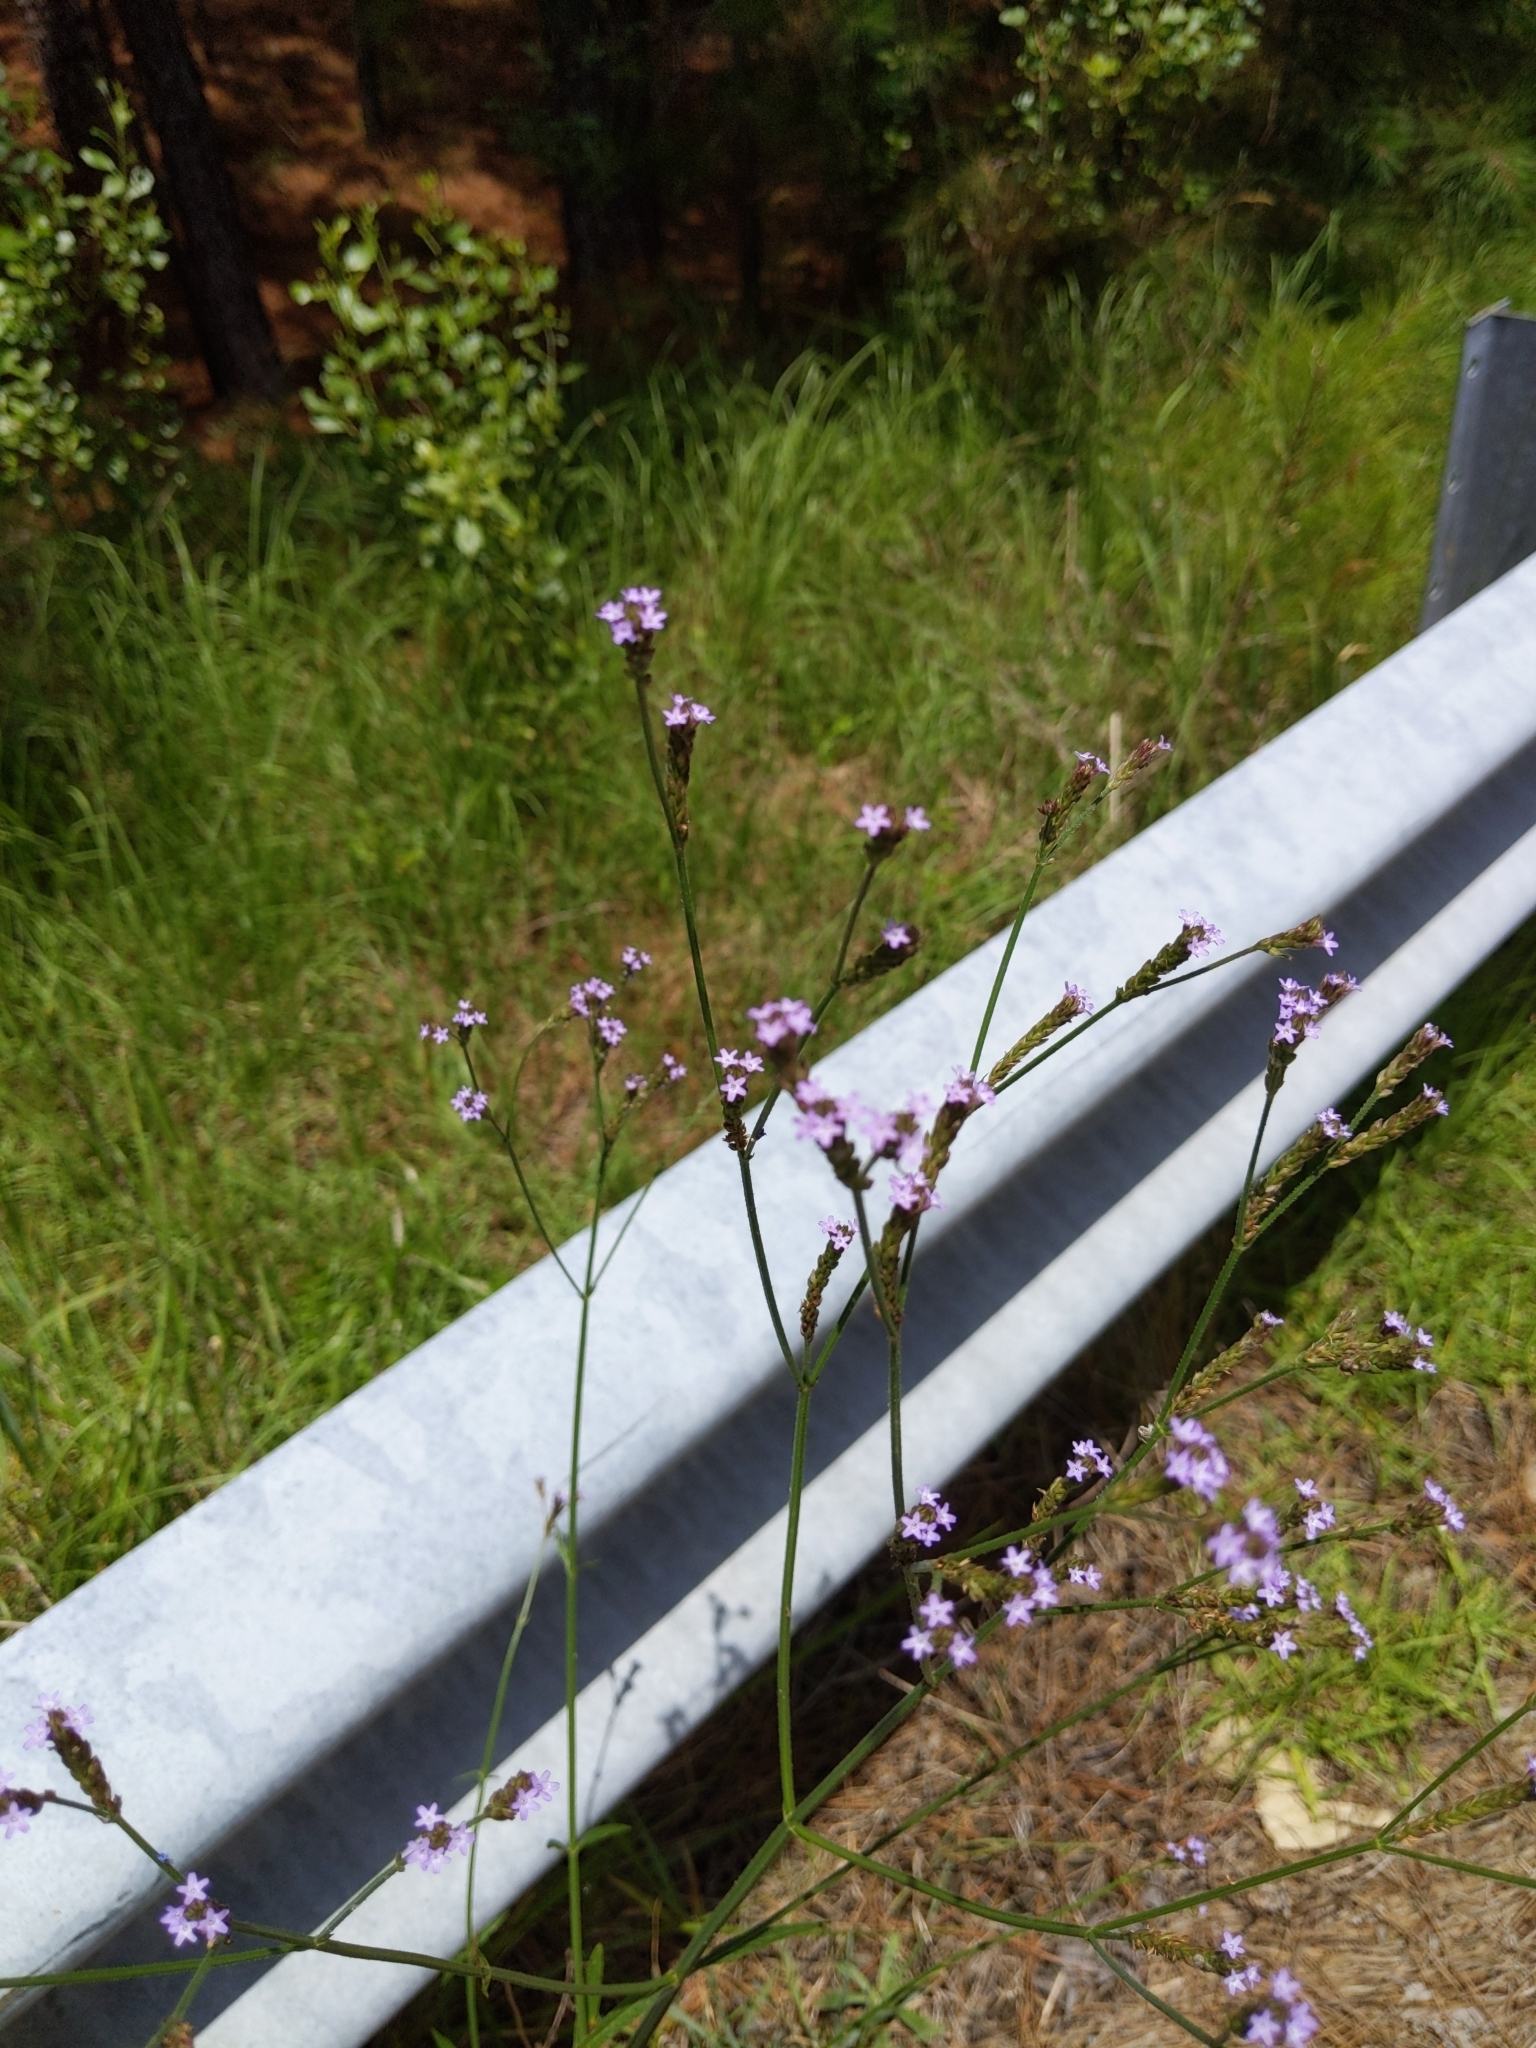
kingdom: Plantae
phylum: Tracheophyta
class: Magnoliopsida
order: Lamiales
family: Verbenaceae
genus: Verbena
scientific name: Verbena brasiliensis
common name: Brazilian vervain
